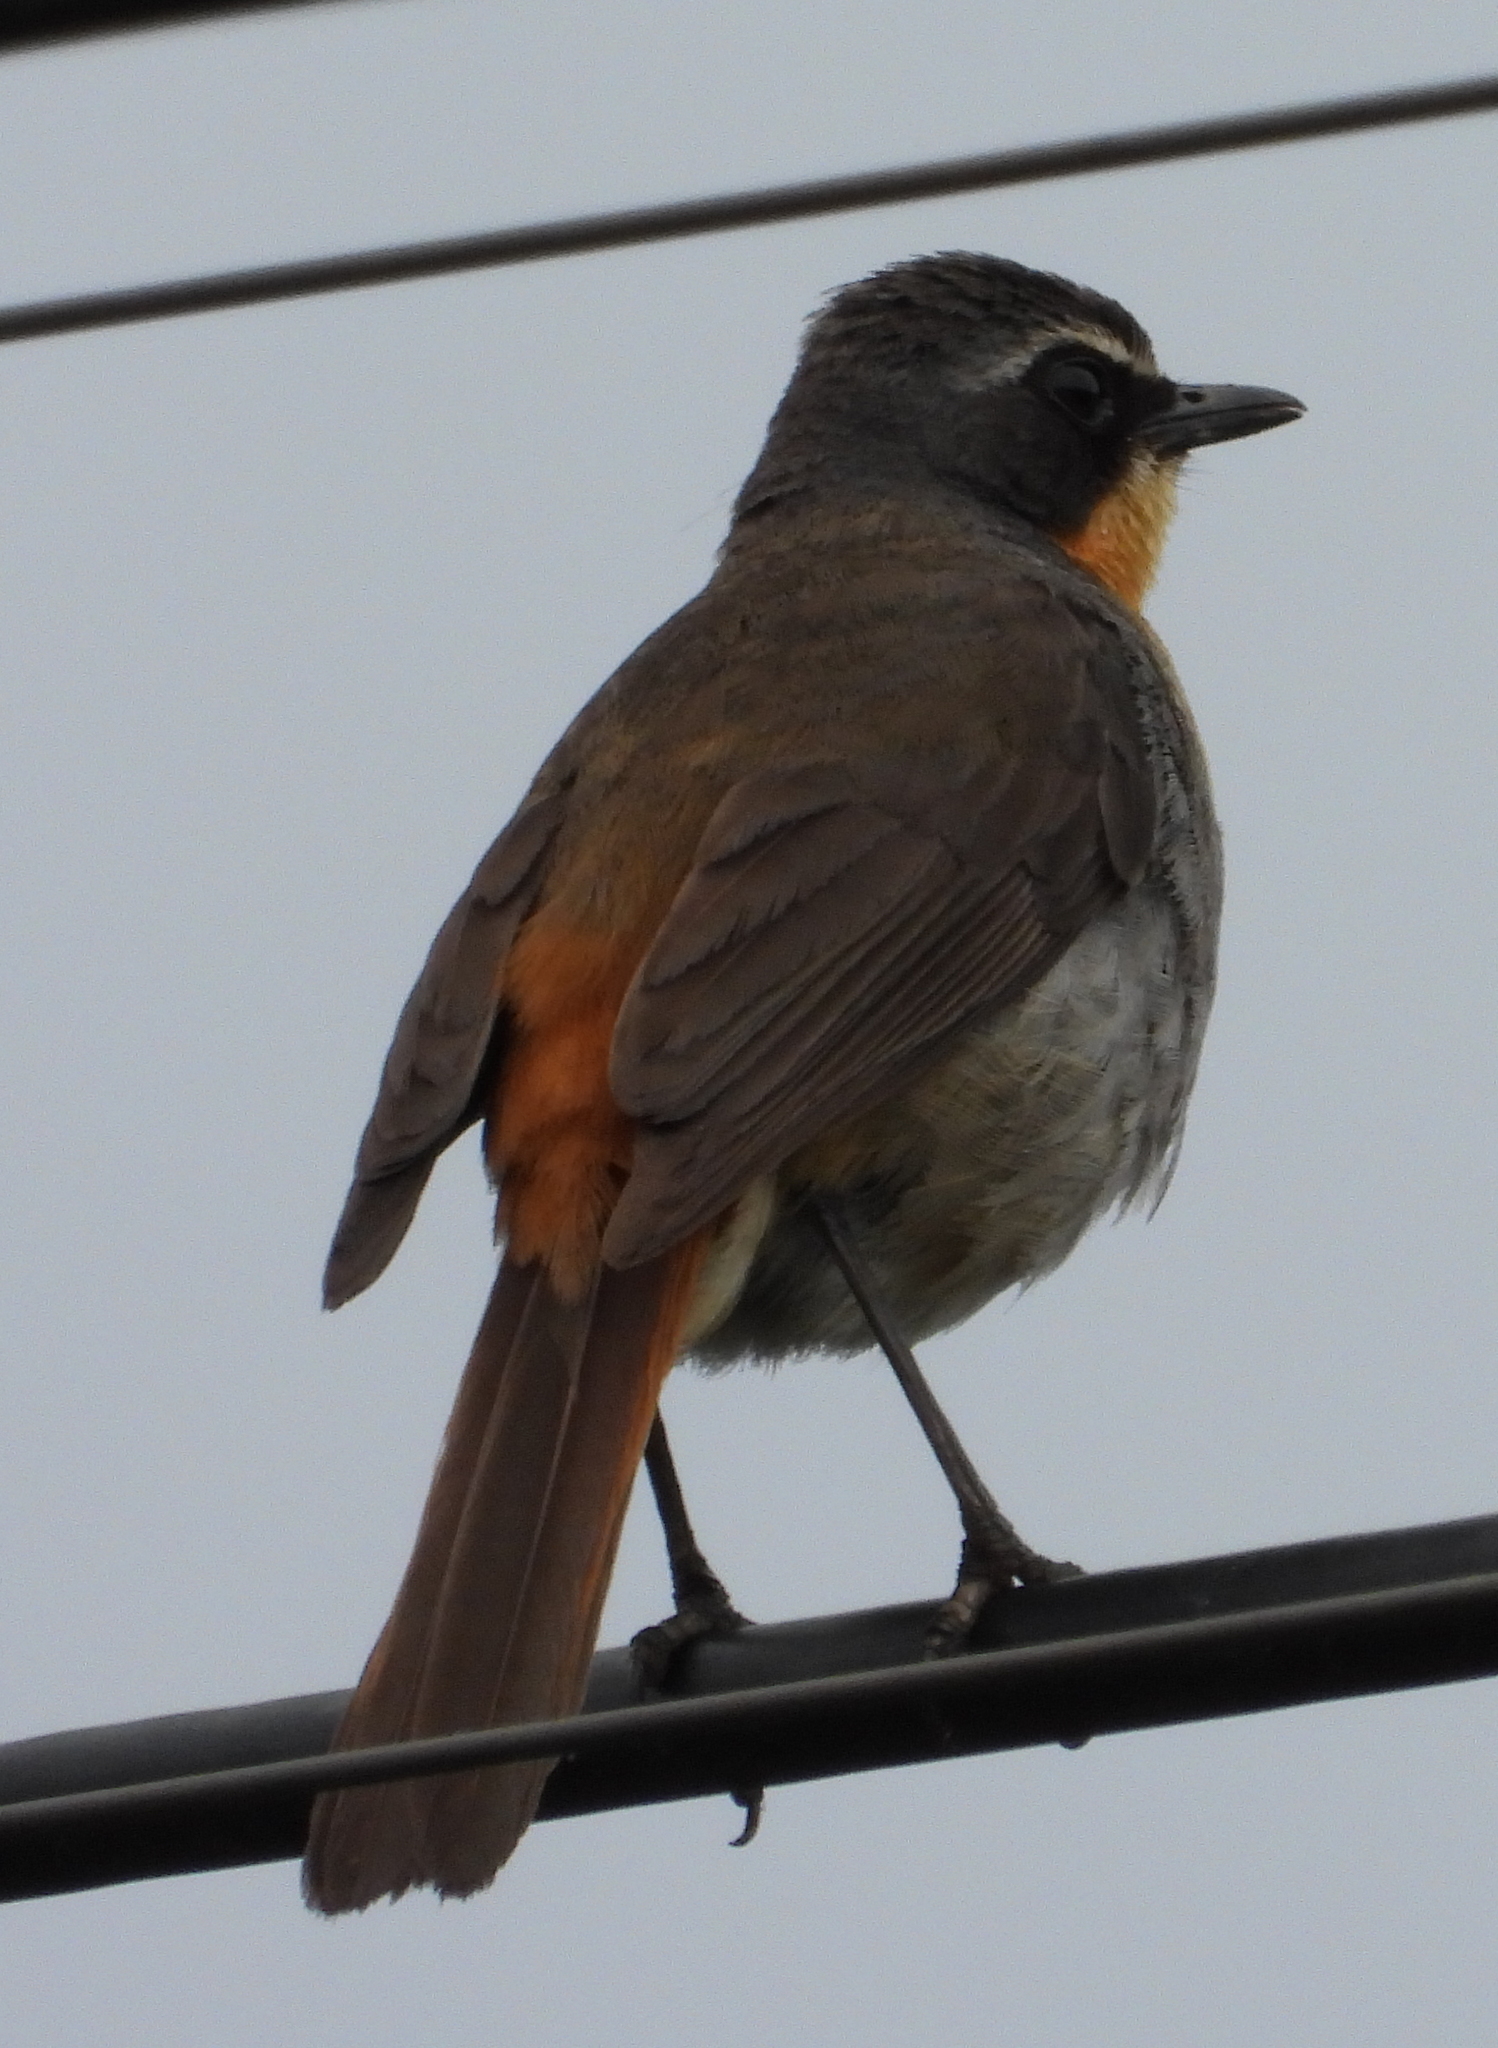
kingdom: Animalia
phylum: Chordata
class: Aves
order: Passeriformes
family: Muscicapidae
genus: Cossypha
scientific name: Cossypha caffra
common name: Cape robin-chat
